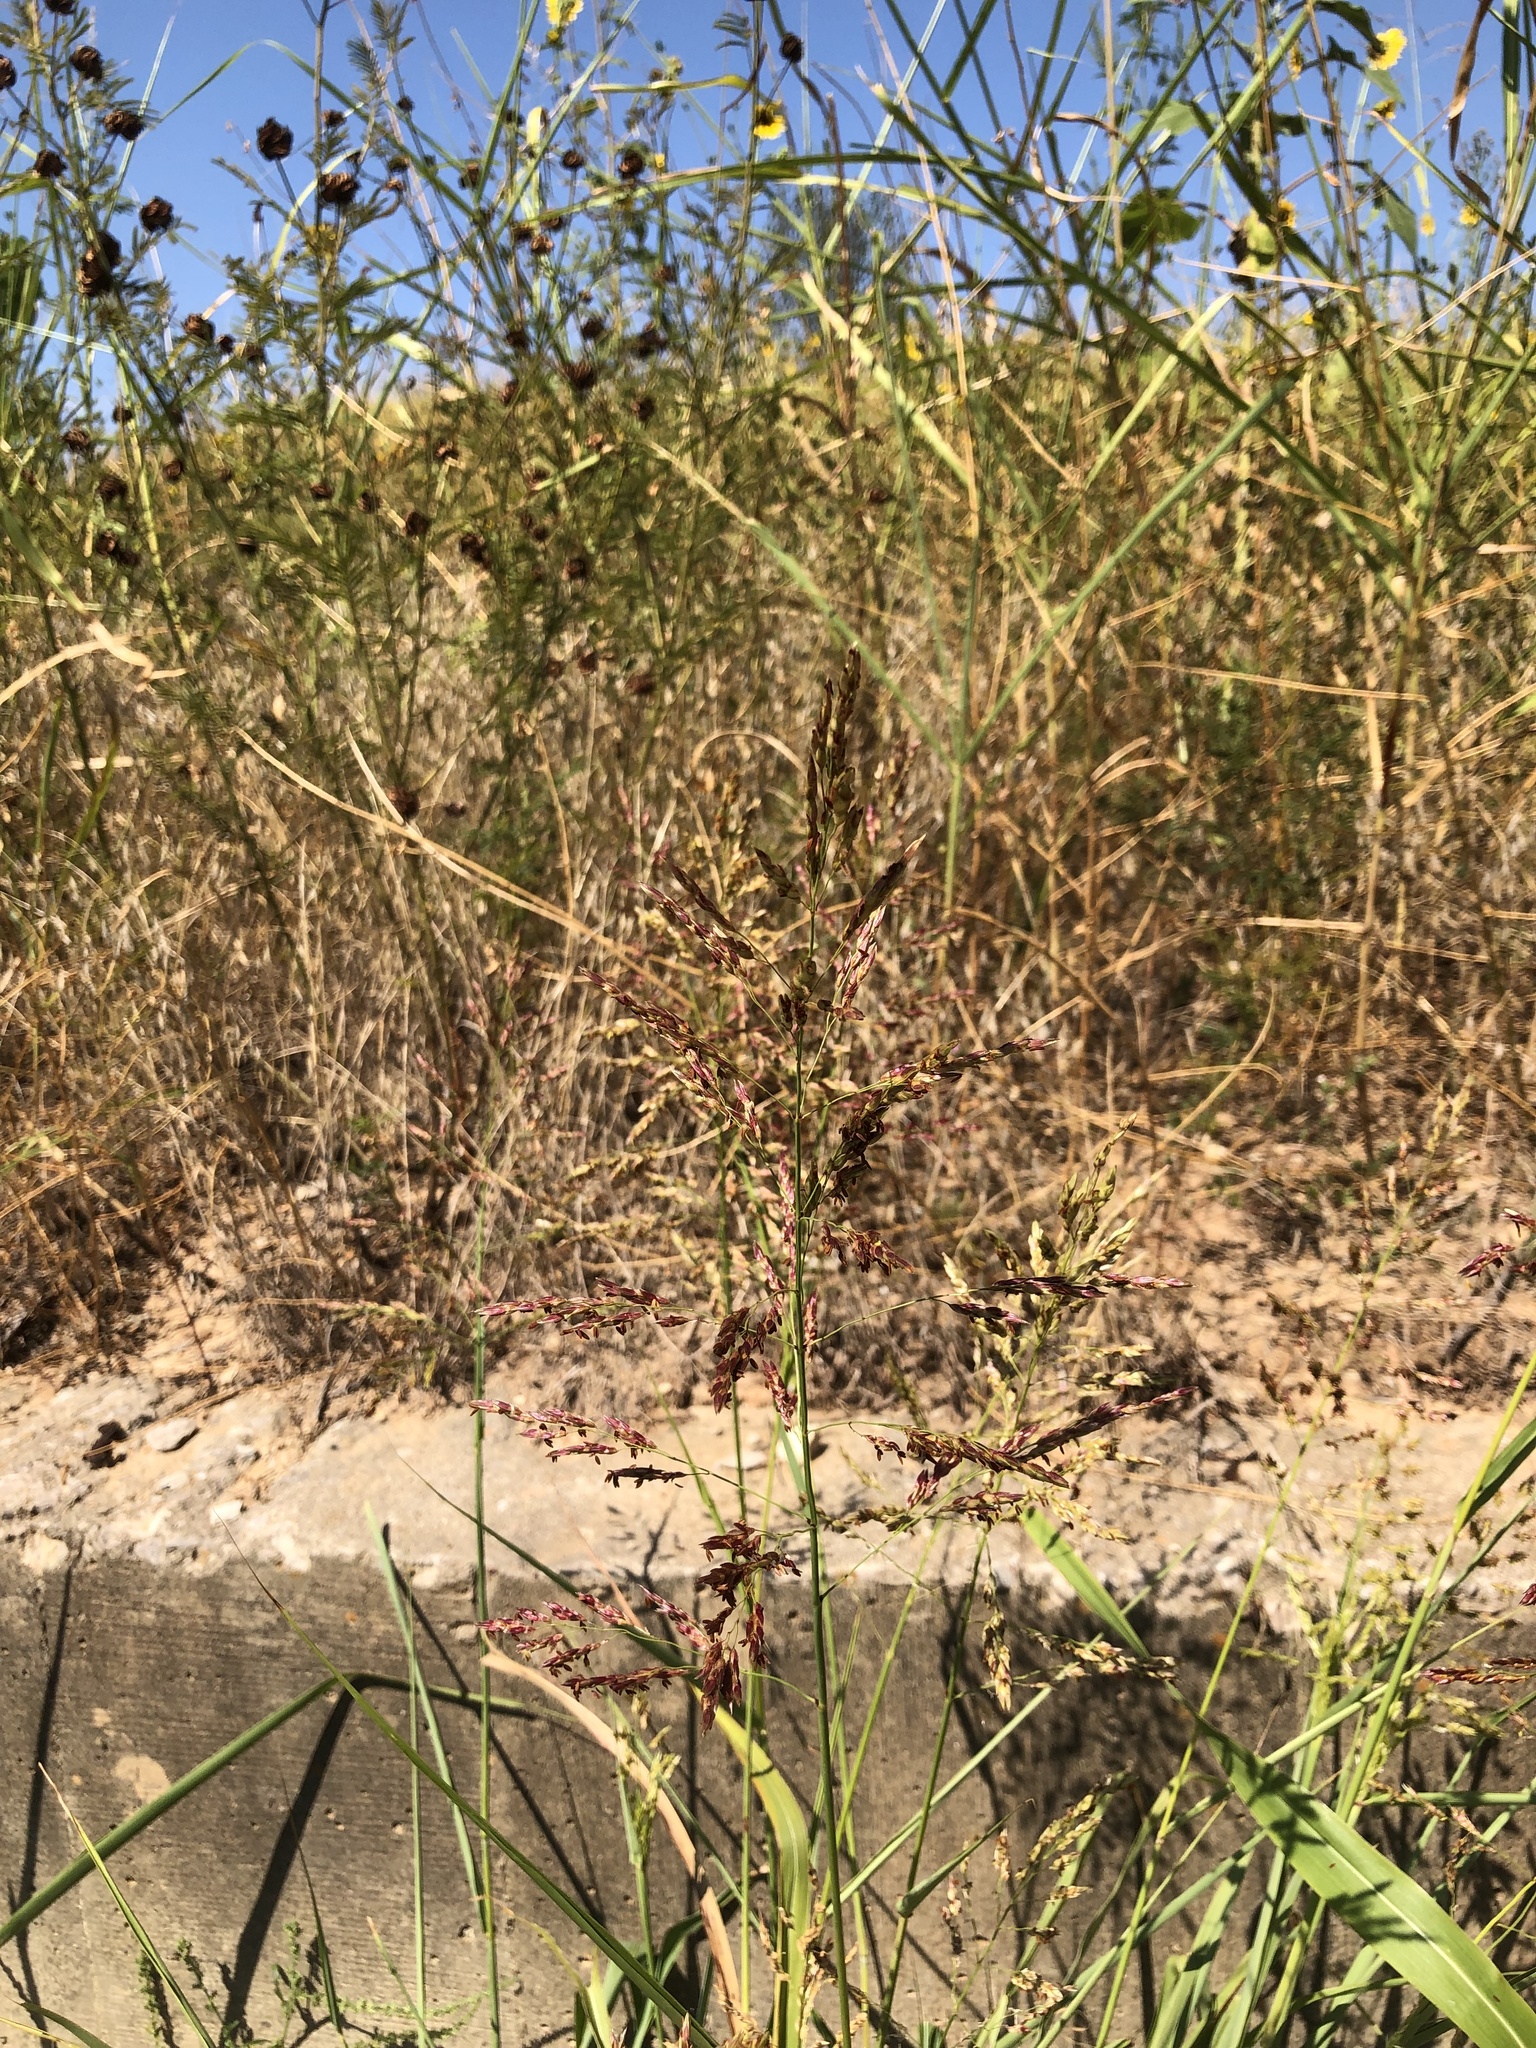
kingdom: Plantae
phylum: Tracheophyta
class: Liliopsida
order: Poales
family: Poaceae
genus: Sorghum
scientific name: Sorghum halepense
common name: Johnson-grass
